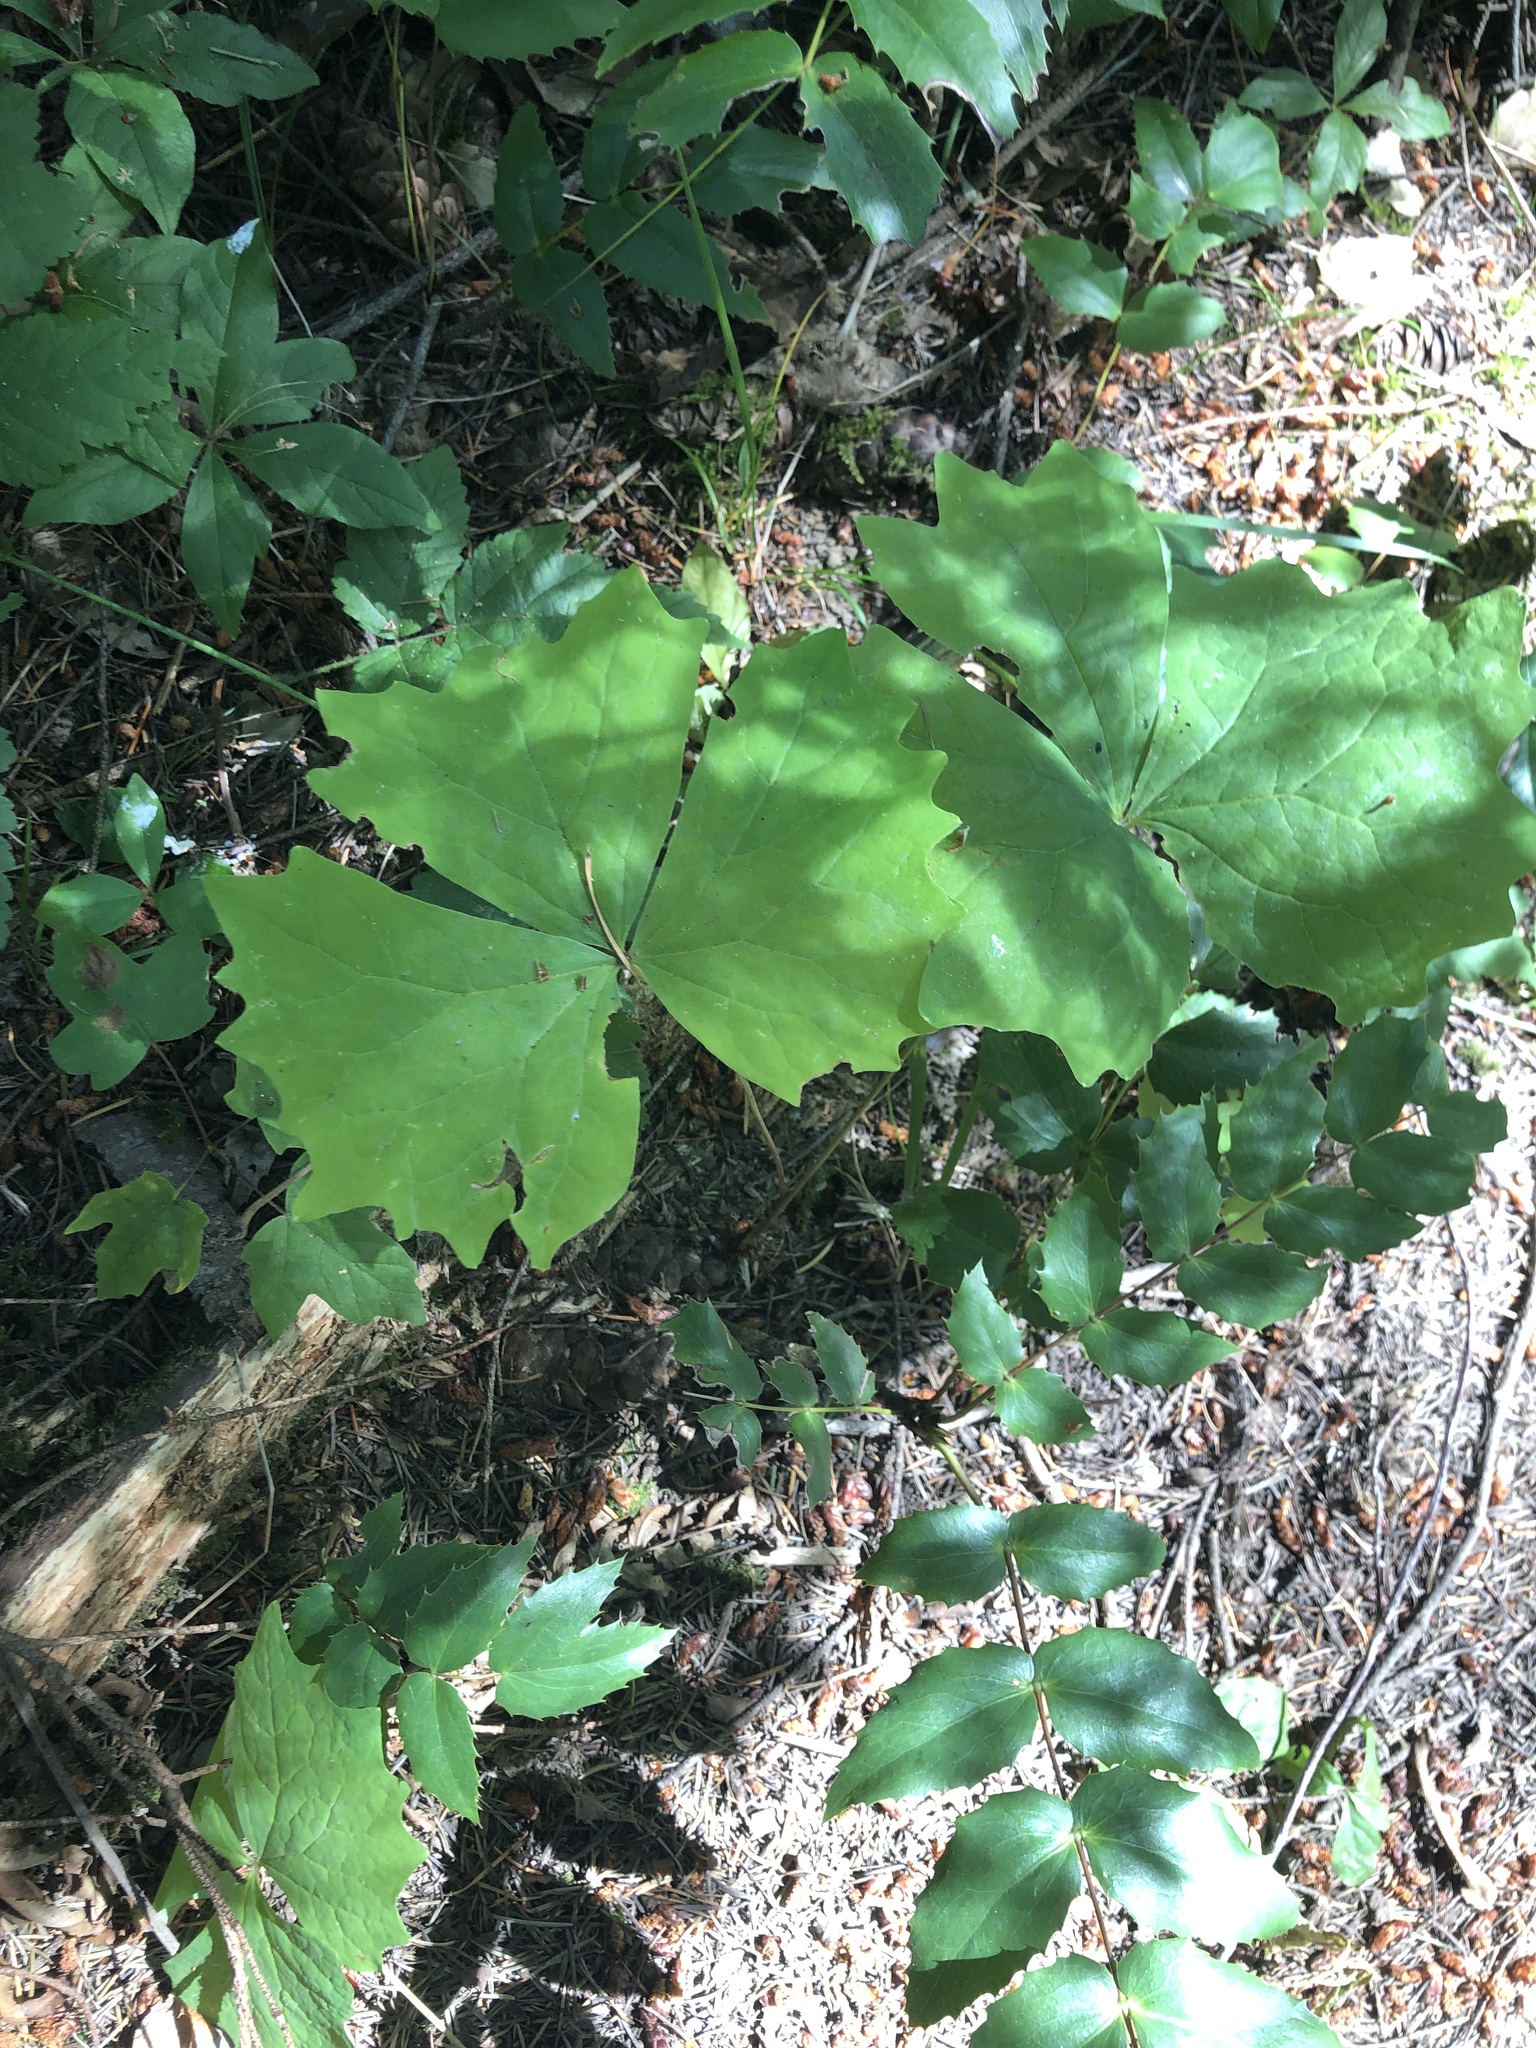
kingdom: Plantae
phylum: Tracheophyta
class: Magnoliopsida
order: Ranunculales
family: Berberidaceae
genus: Achlys
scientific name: Achlys triphylla
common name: Vanilla-leaf
